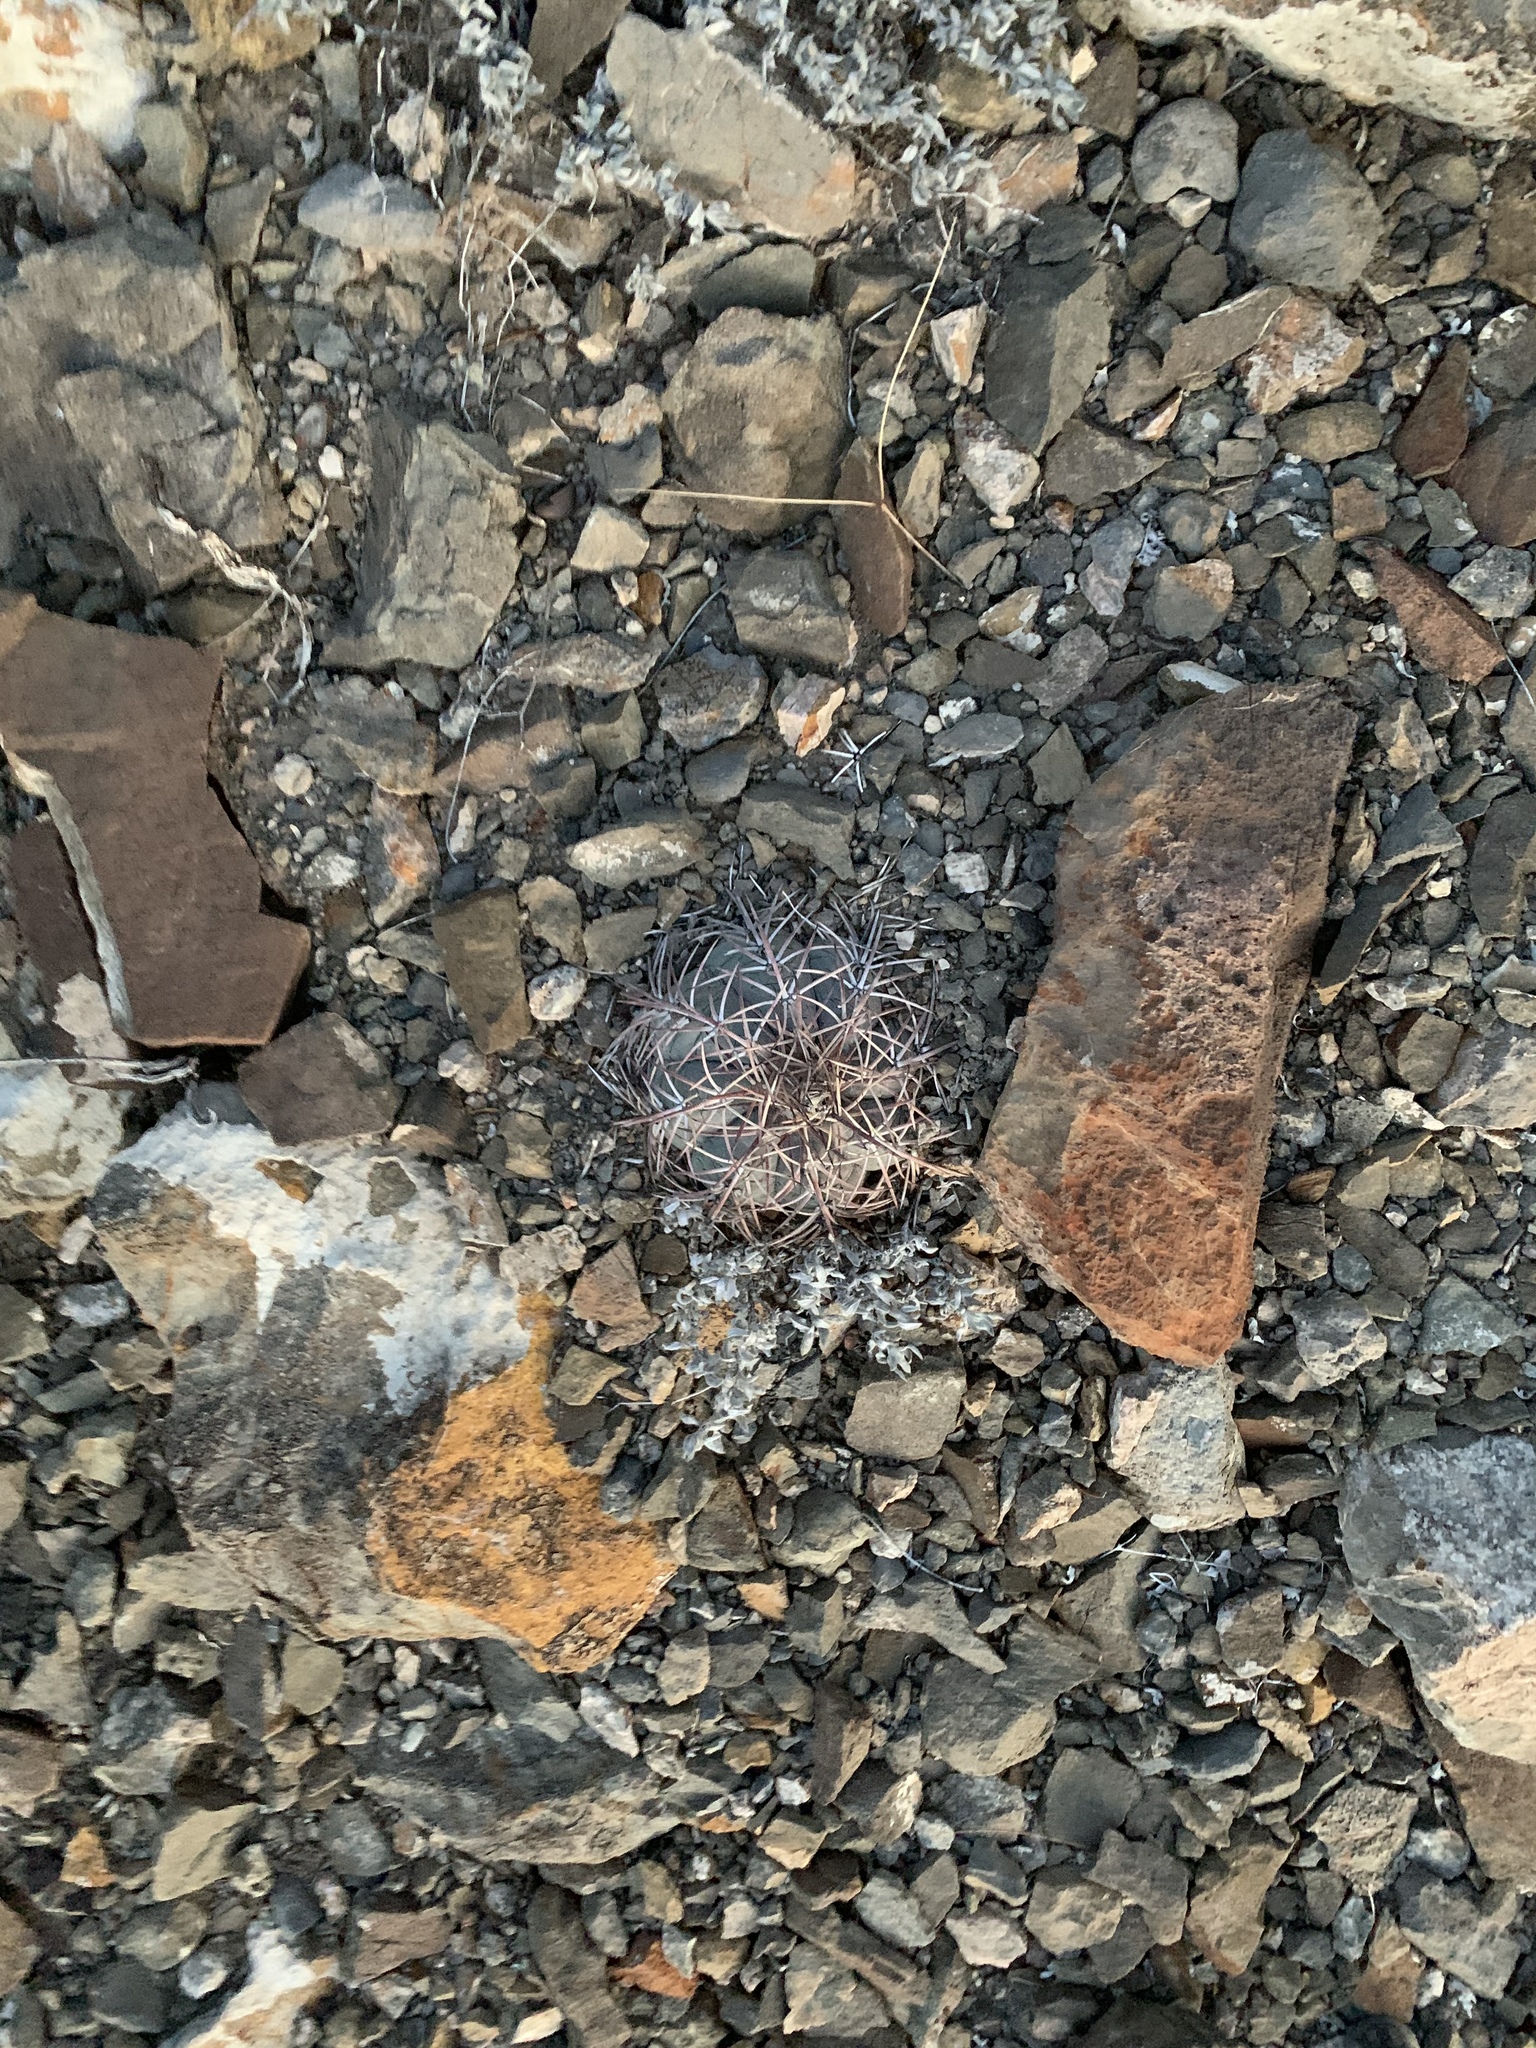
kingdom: Plantae
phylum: Tracheophyta
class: Magnoliopsida
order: Caryophyllales
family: Cactaceae
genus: Echinocactus
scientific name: Echinocactus horizonthalonius
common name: Devilshead
